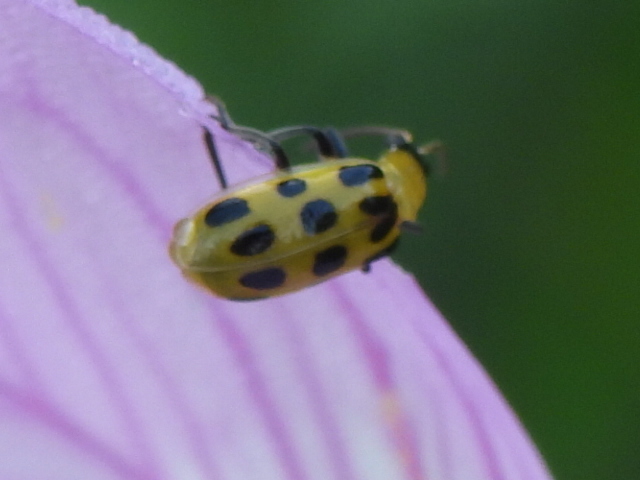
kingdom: Animalia
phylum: Arthropoda
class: Insecta
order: Coleoptera
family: Chrysomelidae
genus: Diabrotica
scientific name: Diabrotica undecimpunctata
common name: Spotted cucumber beetle
